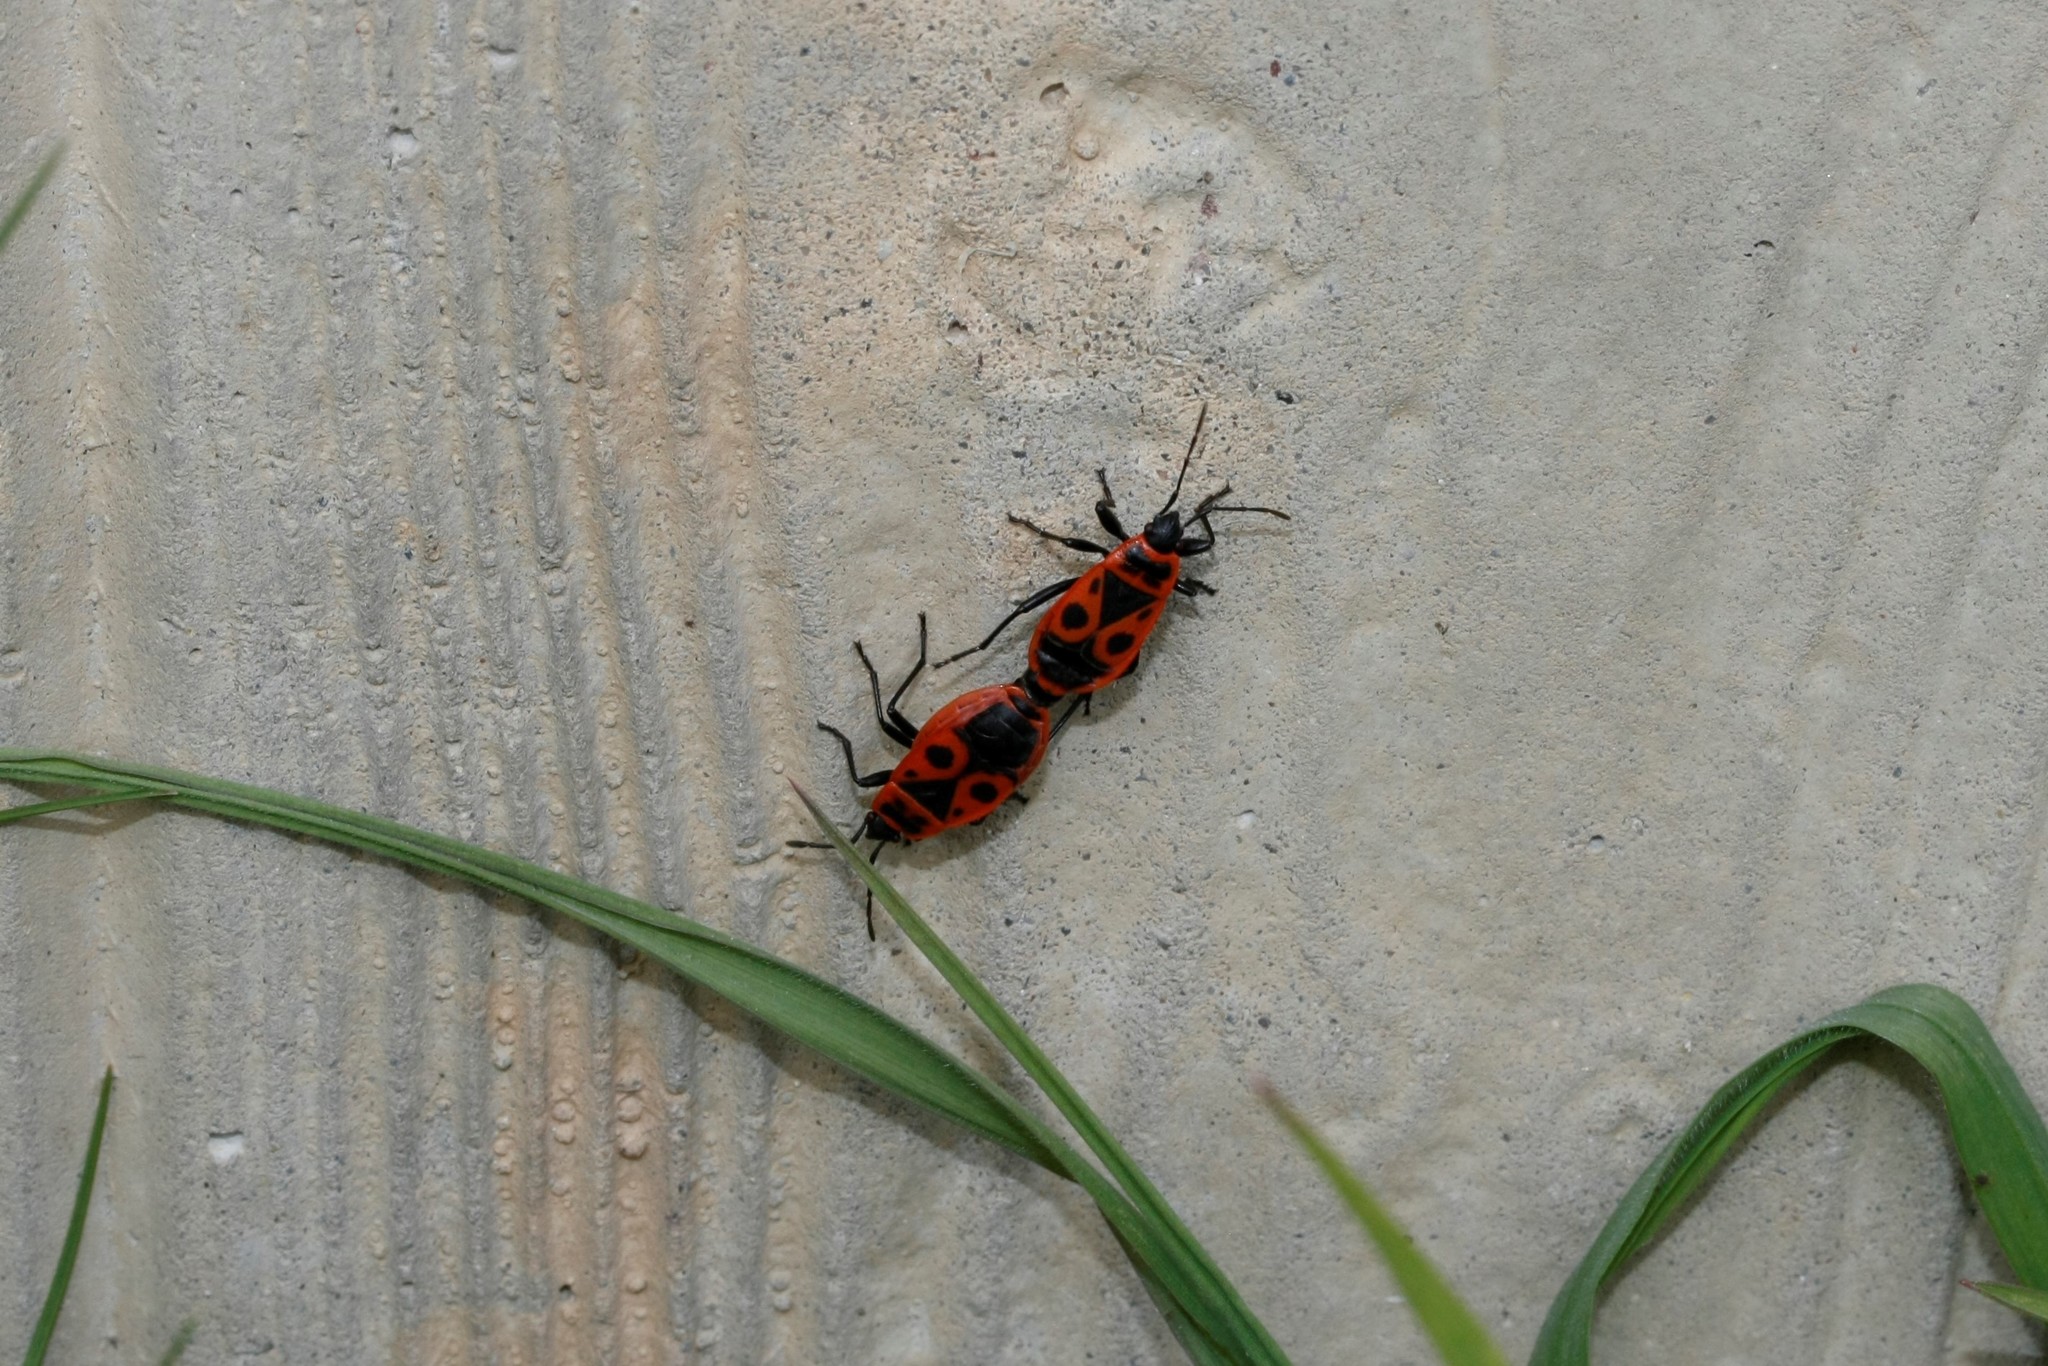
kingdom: Animalia
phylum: Arthropoda
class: Insecta
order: Hemiptera
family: Pyrrhocoridae
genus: Pyrrhocoris
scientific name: Pyrrhocoris apterus
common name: Firebug
